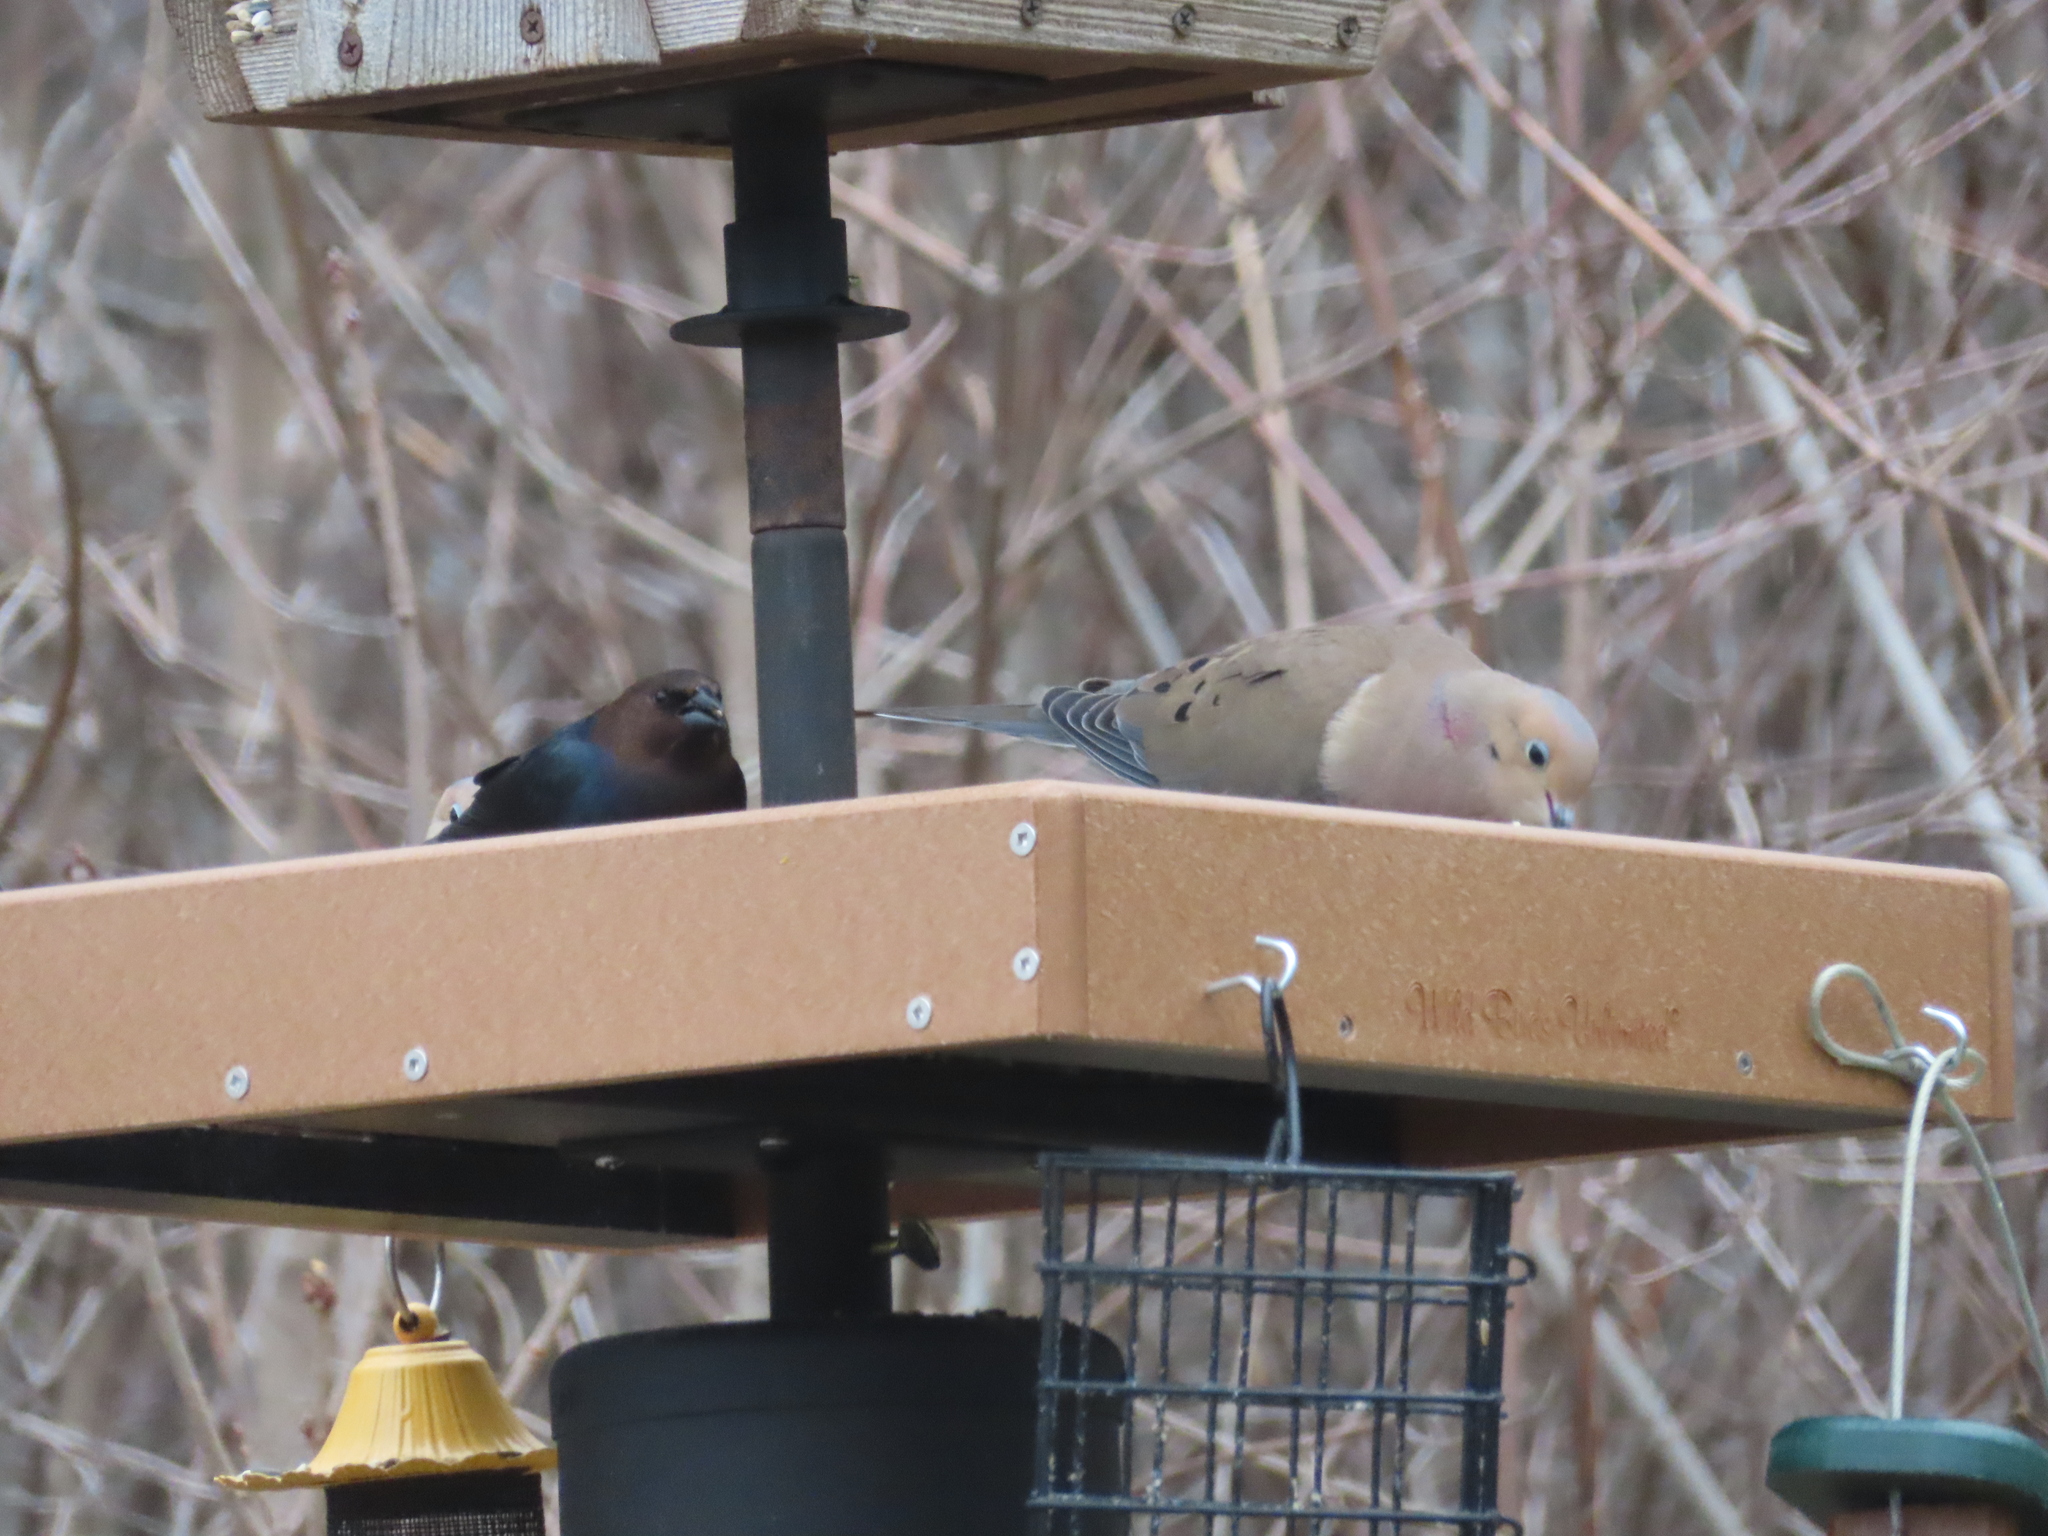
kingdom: Animalia
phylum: Chordata
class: Aves
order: Passeriformes
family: Icteridae
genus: Molothrus
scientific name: Molothrus ater
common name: Brown-headed cowbird
